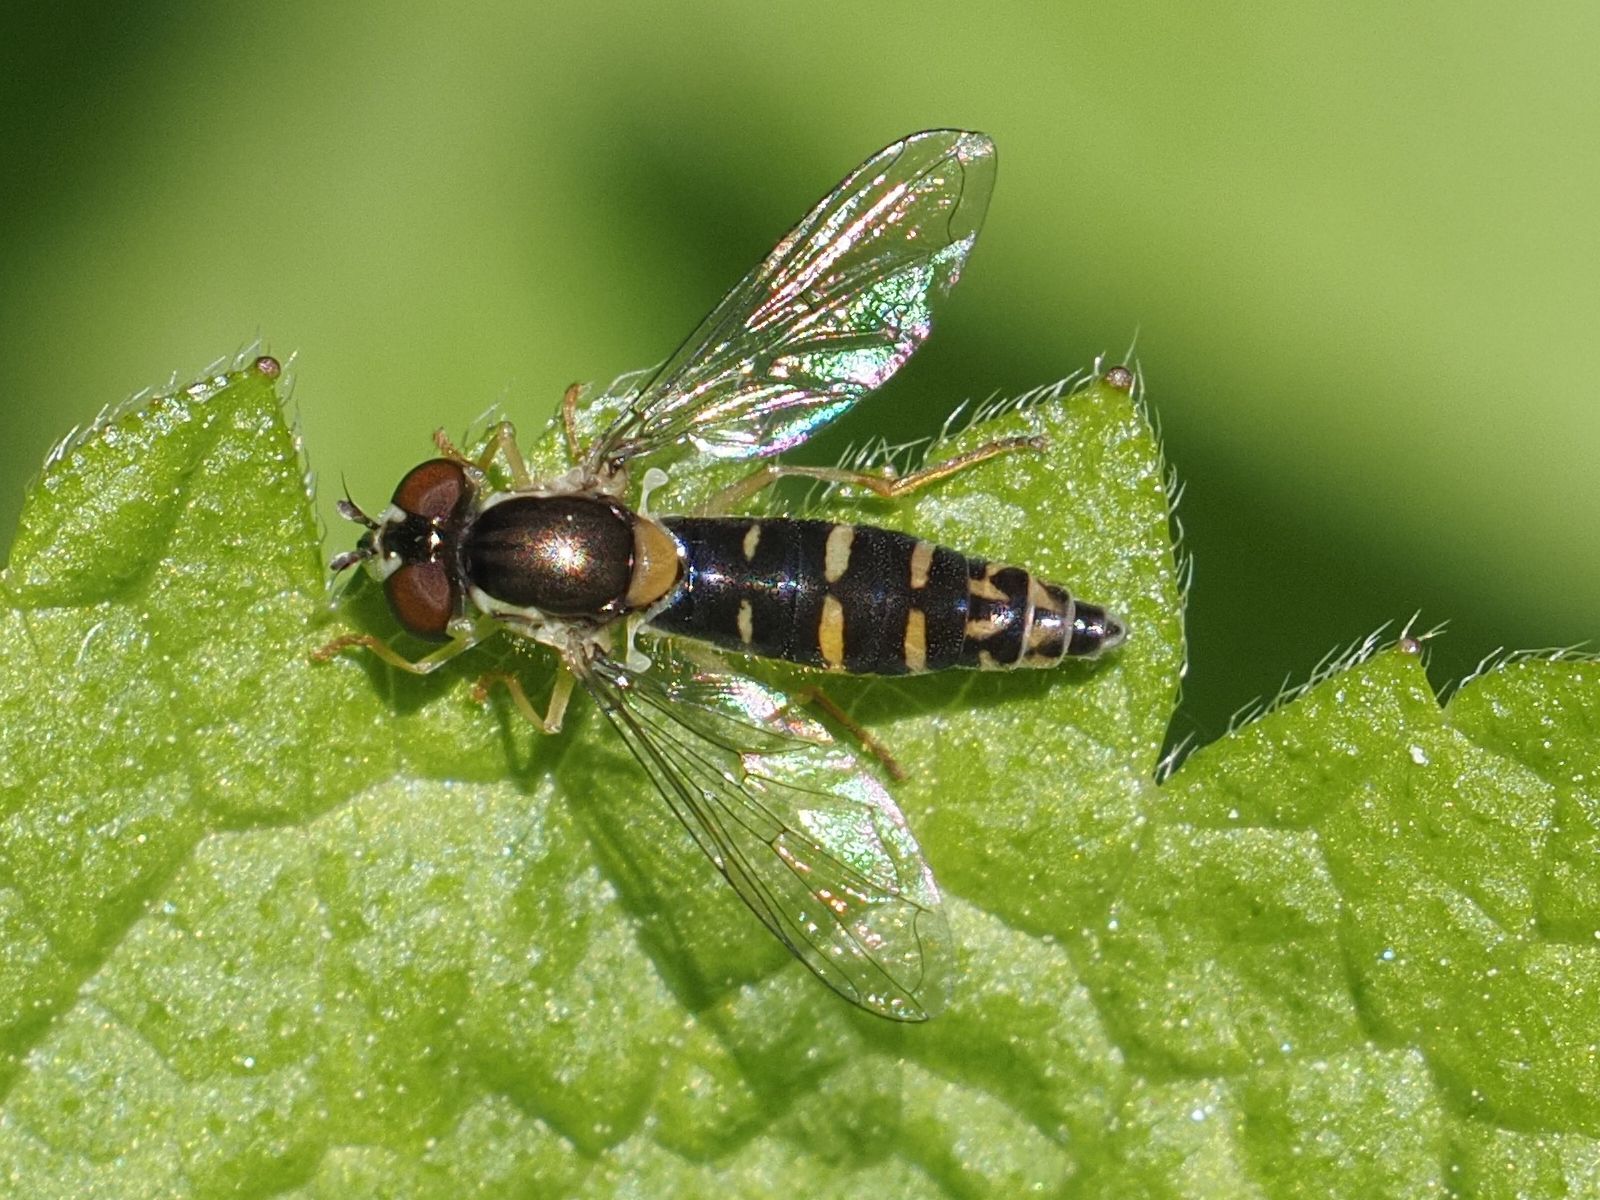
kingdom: Animalia
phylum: Arthropoda
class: Insecta
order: Diptera
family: Syrphidae
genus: Sphaerophoria
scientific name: Sphaerophoria
